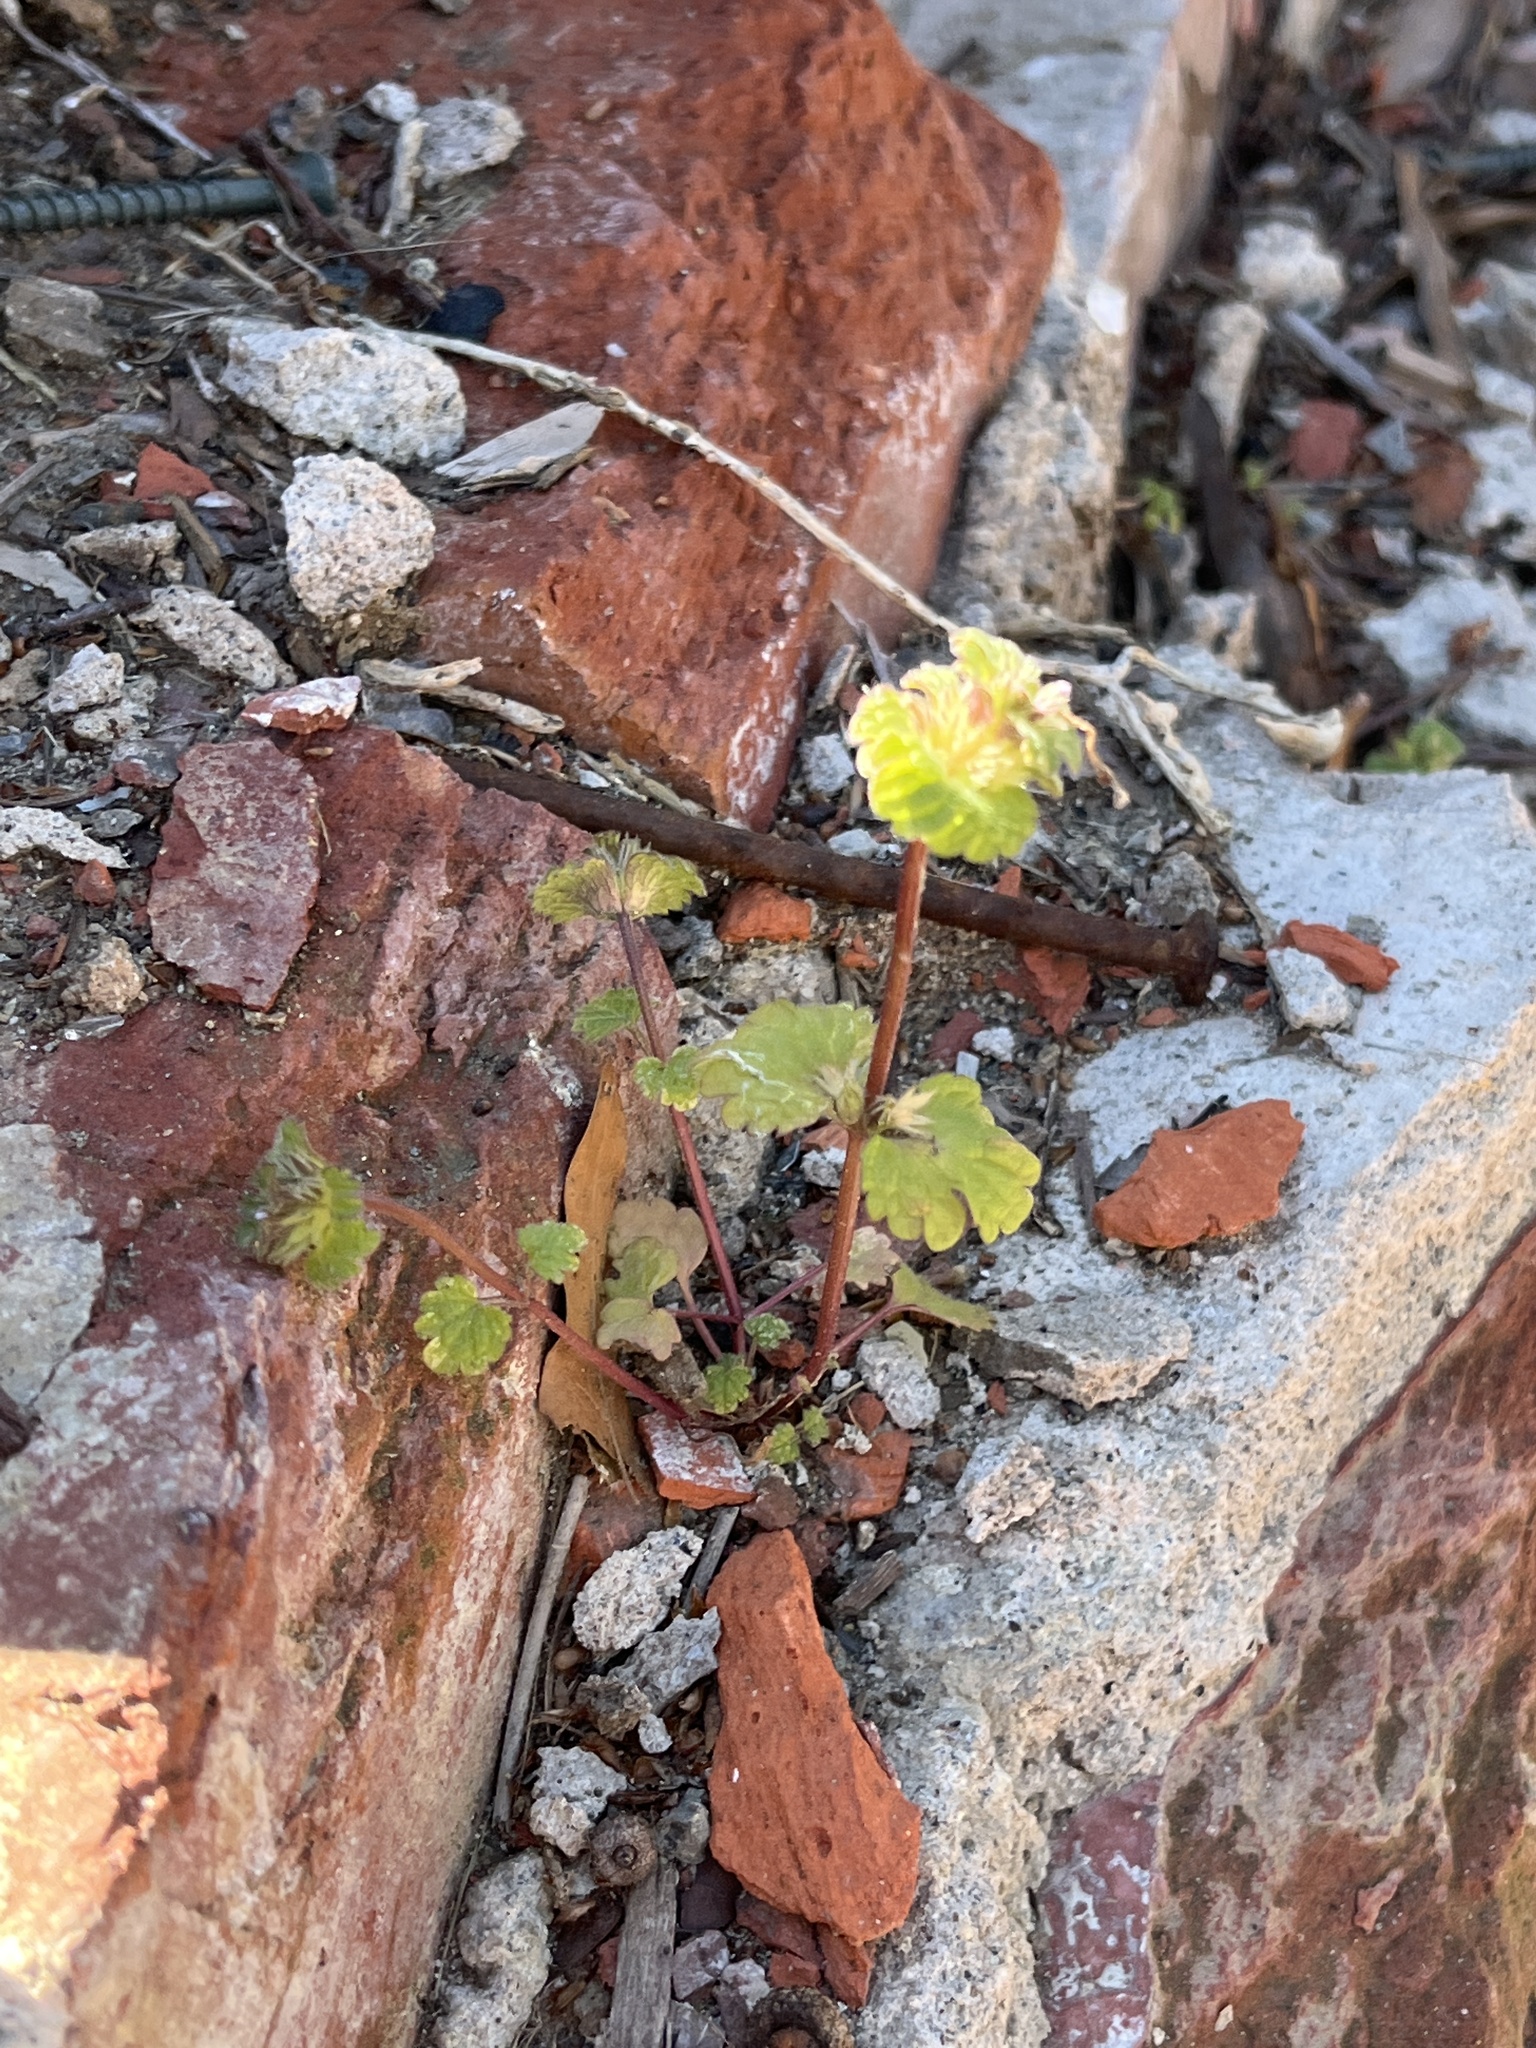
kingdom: Plantae
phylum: Tracheophyta
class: Magnoliopsida
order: Lamiales
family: Lamiaceae
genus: Lamium
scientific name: Lamium amplexicaule
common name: Henbit dead-nettle
